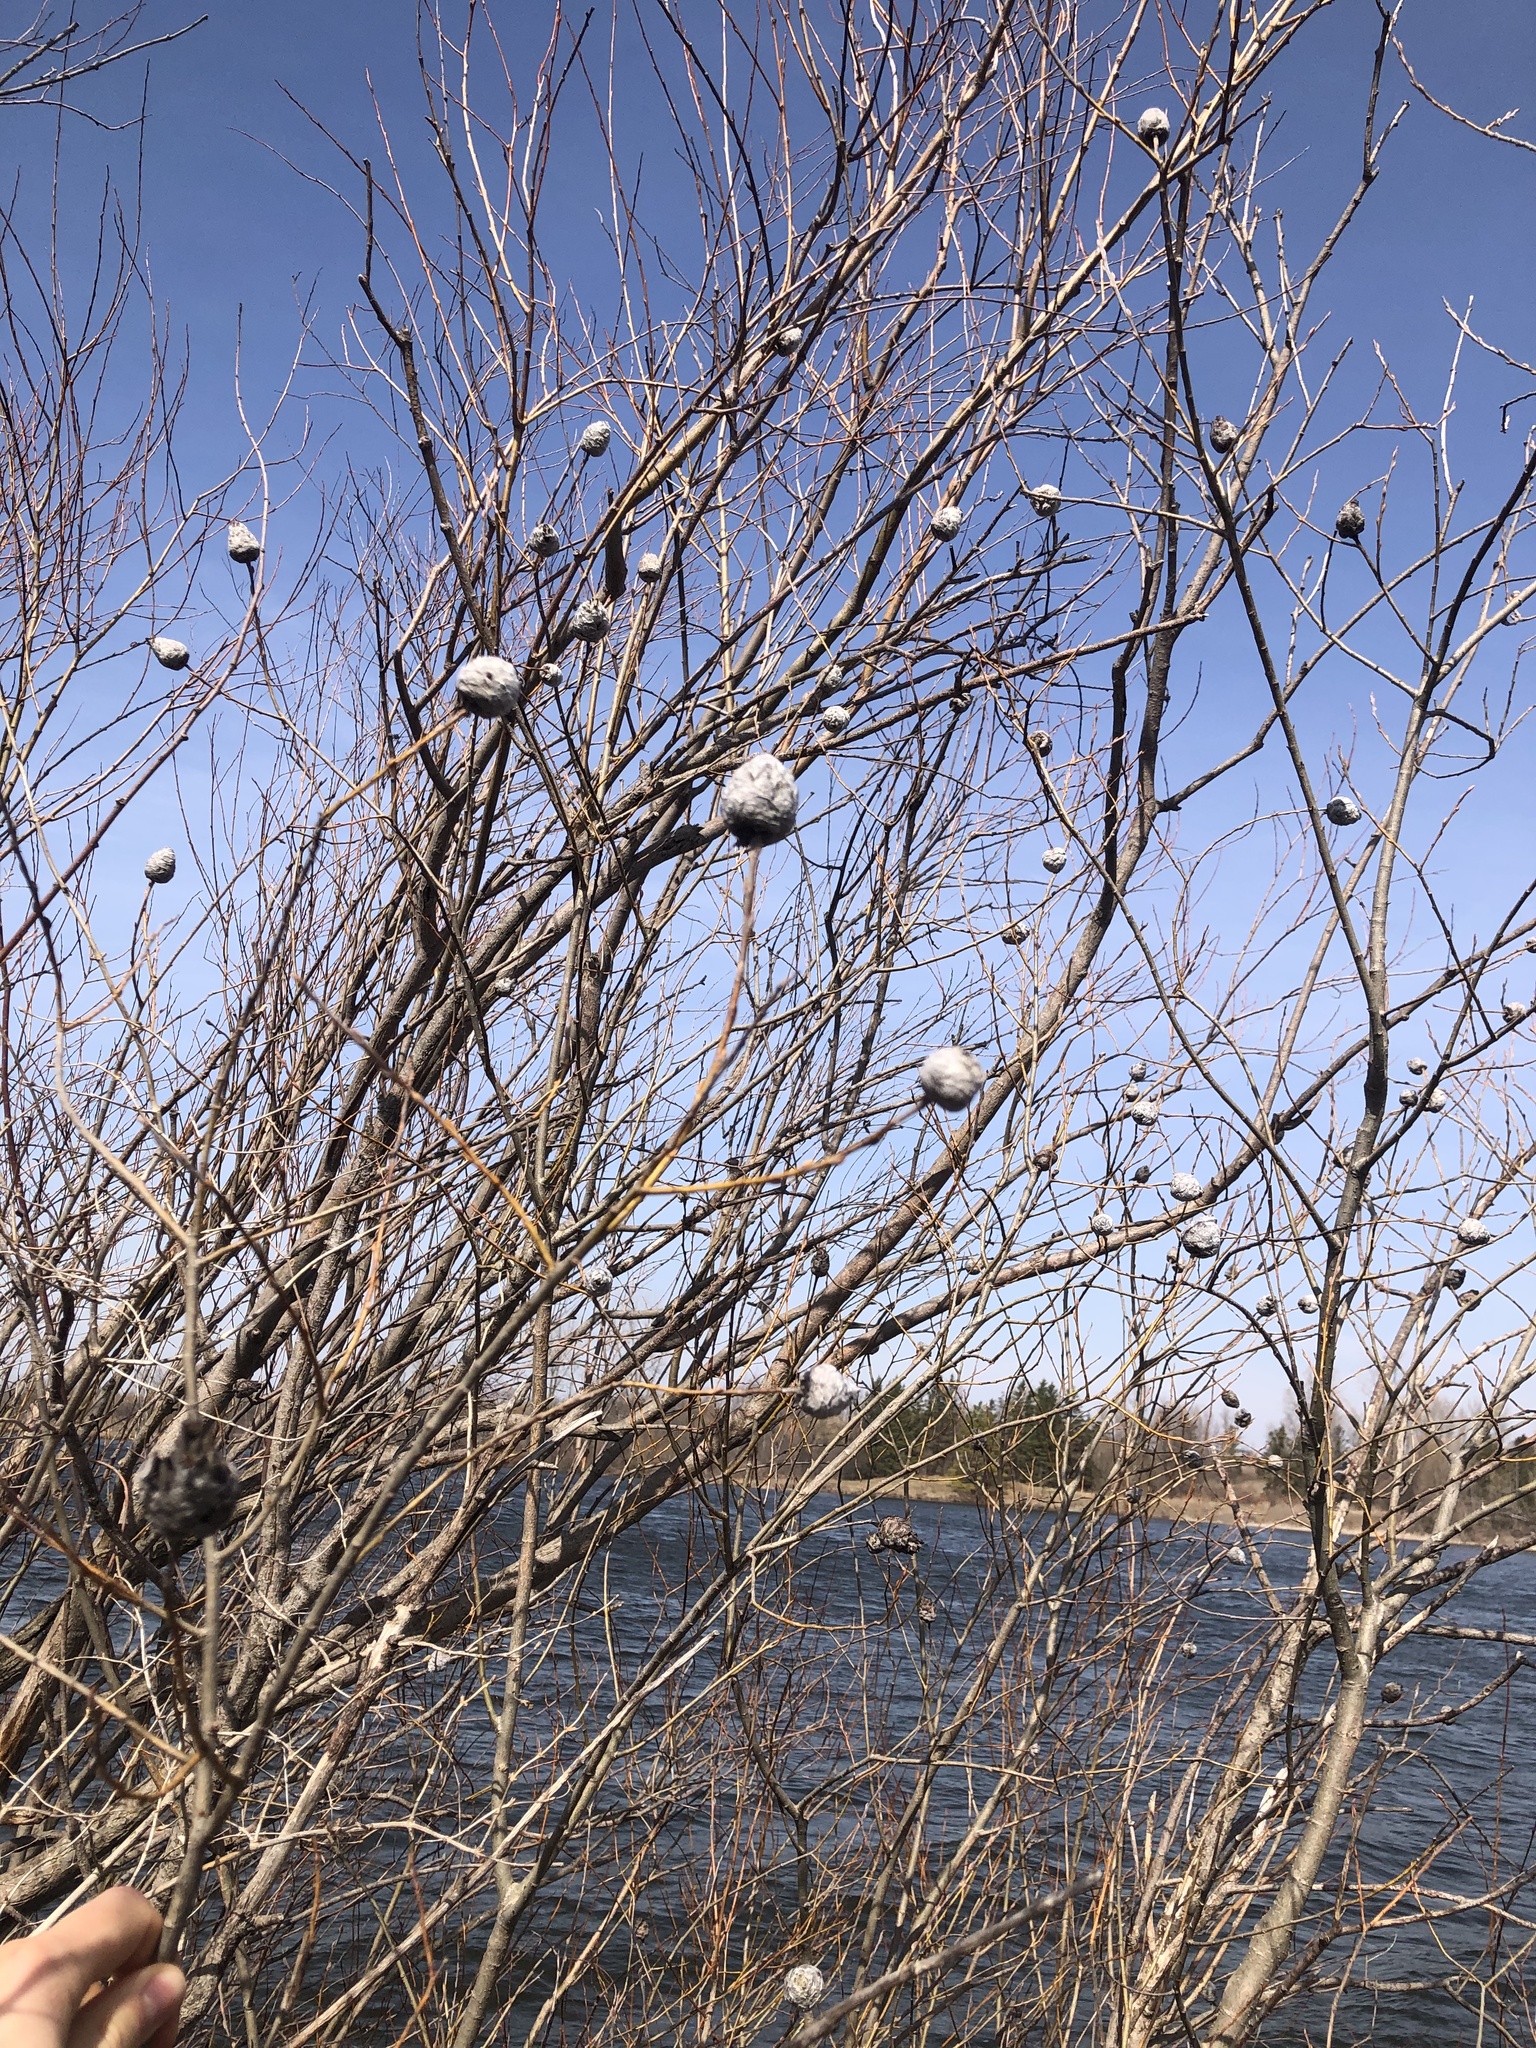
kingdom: Animalia
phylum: Arthropoda
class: Insecta
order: Diptera
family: Cecidomyiidae
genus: Rabdophaga
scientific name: Rabdophaga strobiloides
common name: Willow pinecone gall midge
